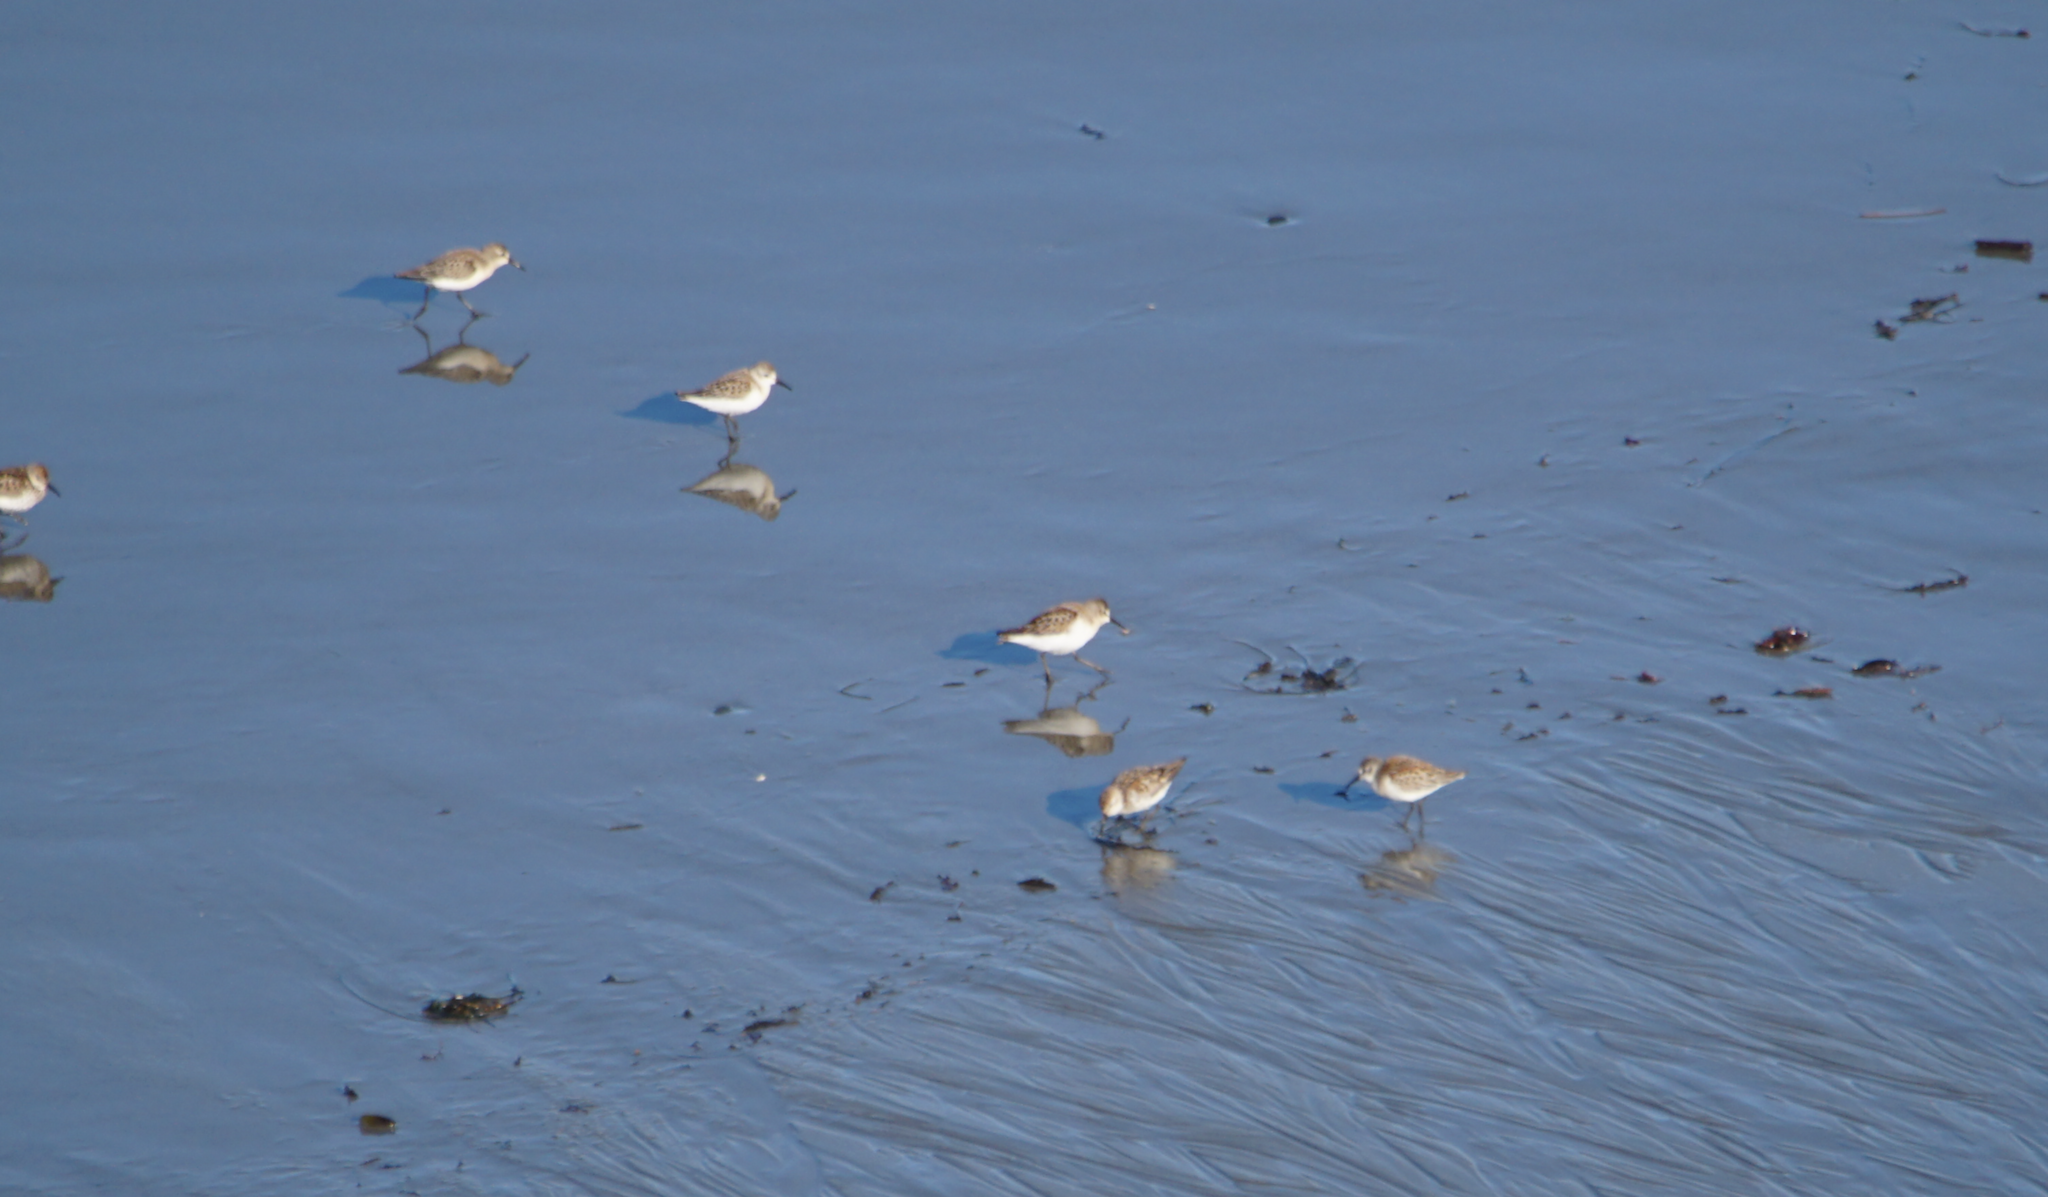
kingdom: Animalia
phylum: Chordata
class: Aves
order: Charadriiformes
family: Scolopacidae
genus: Calidris
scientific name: Calidris mauri
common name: Western sandpiper
